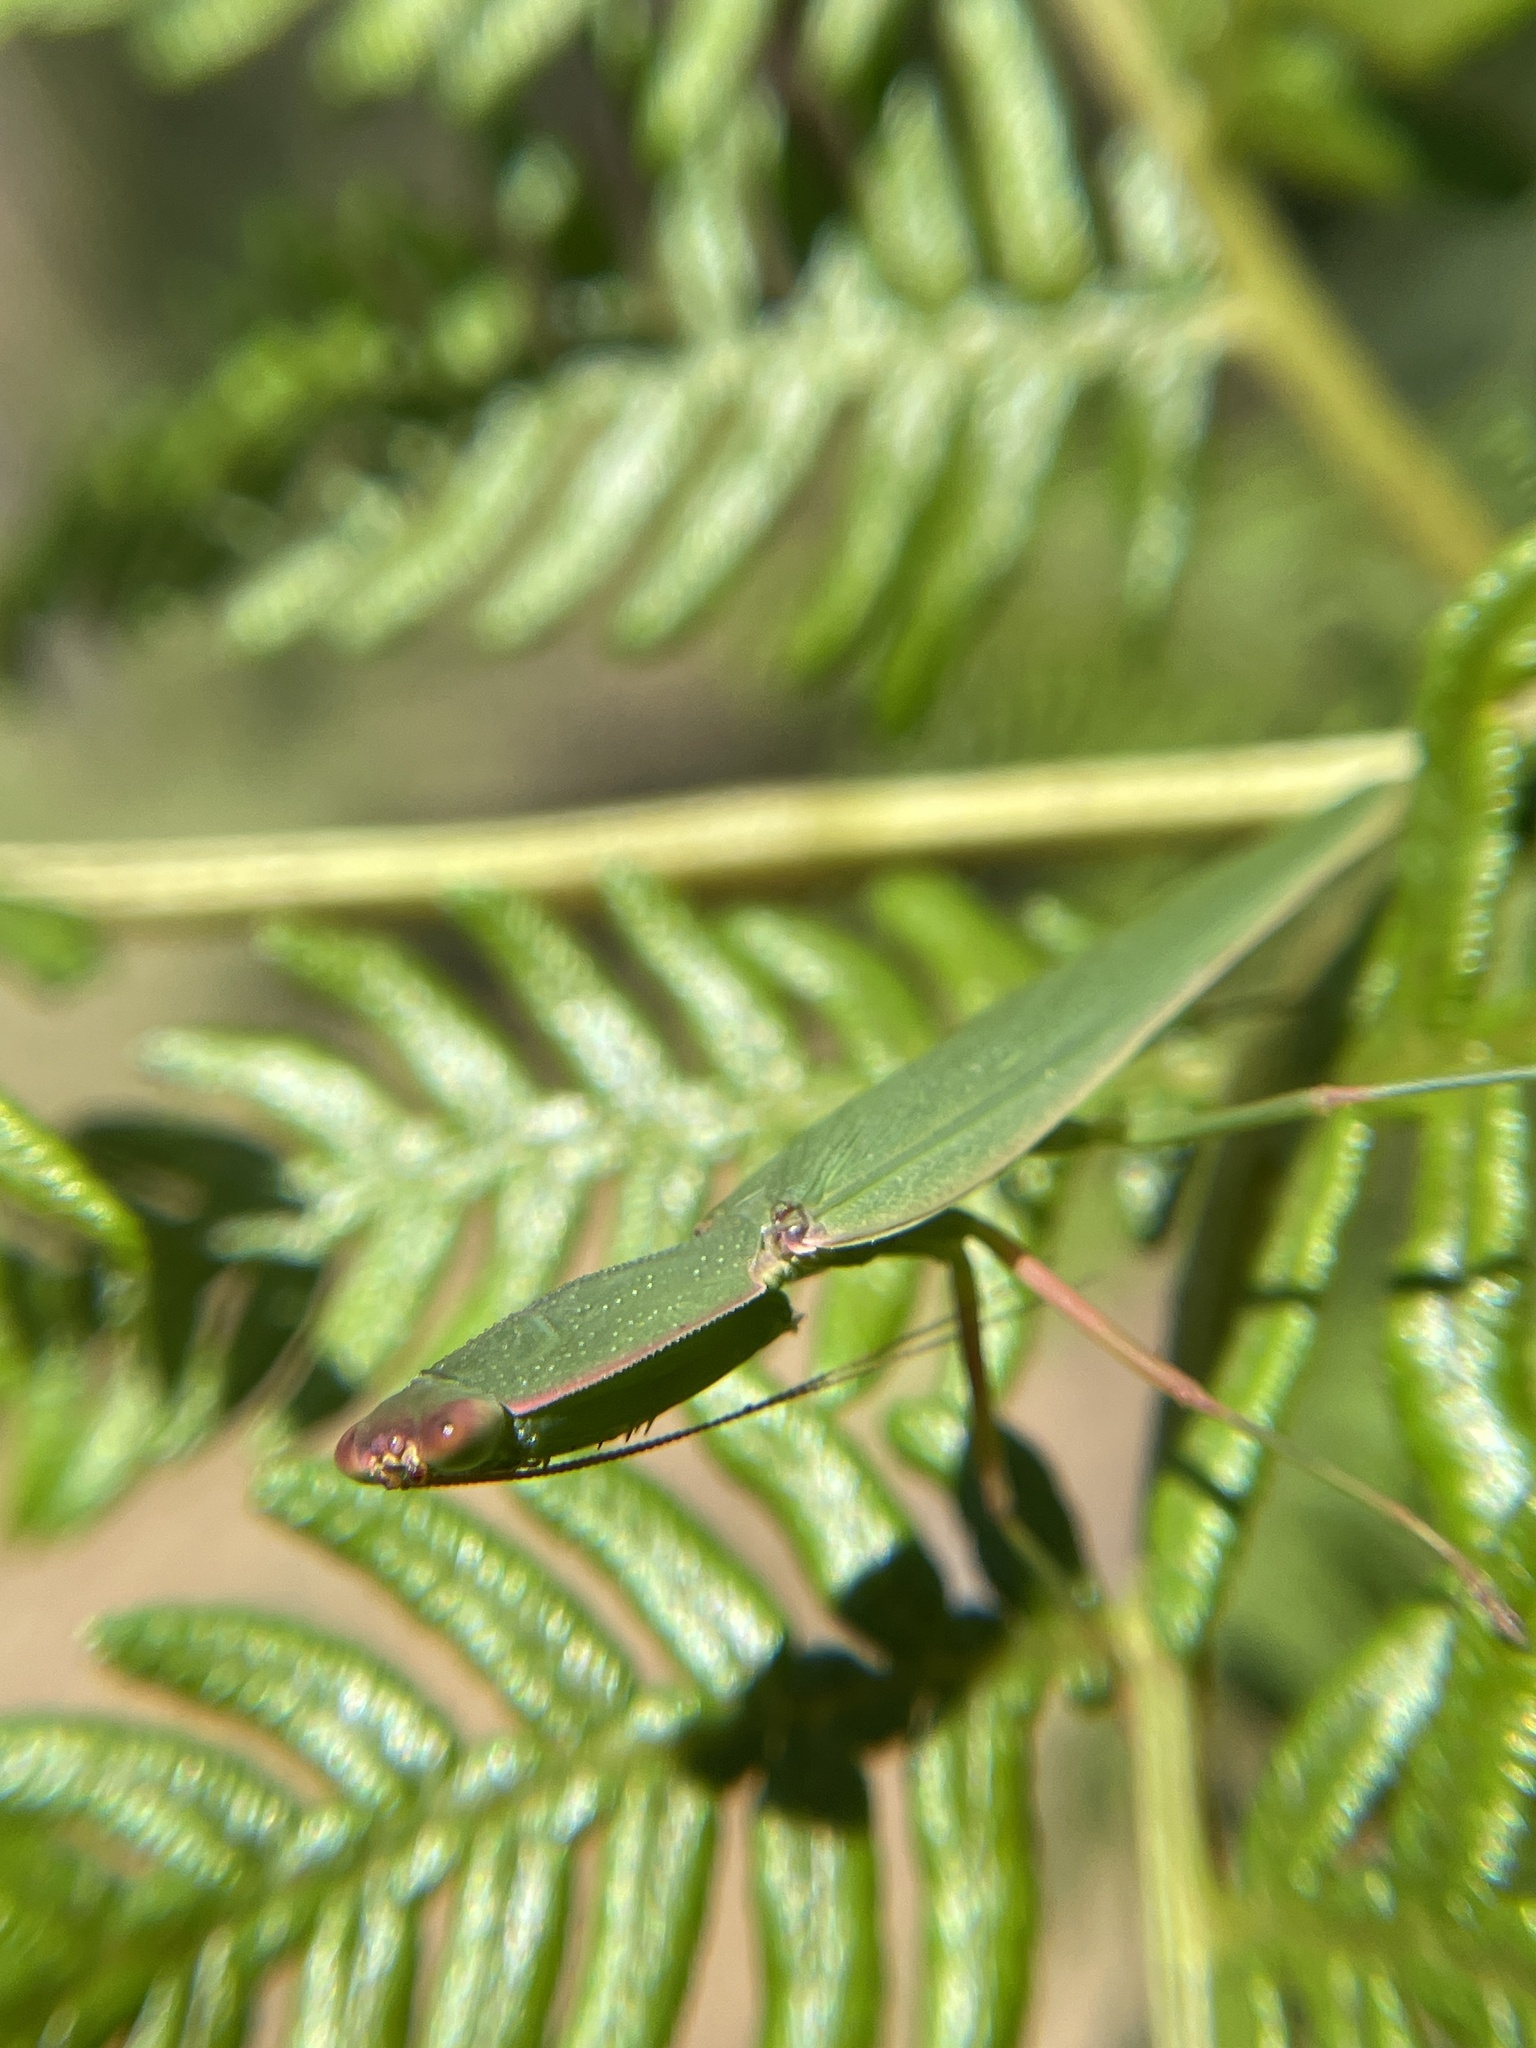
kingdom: Animalia
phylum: Arthropoda
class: Insecta
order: Mantodea
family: Mantidae
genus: Orthodera
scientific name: Orthodera ministralis
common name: Mantis
